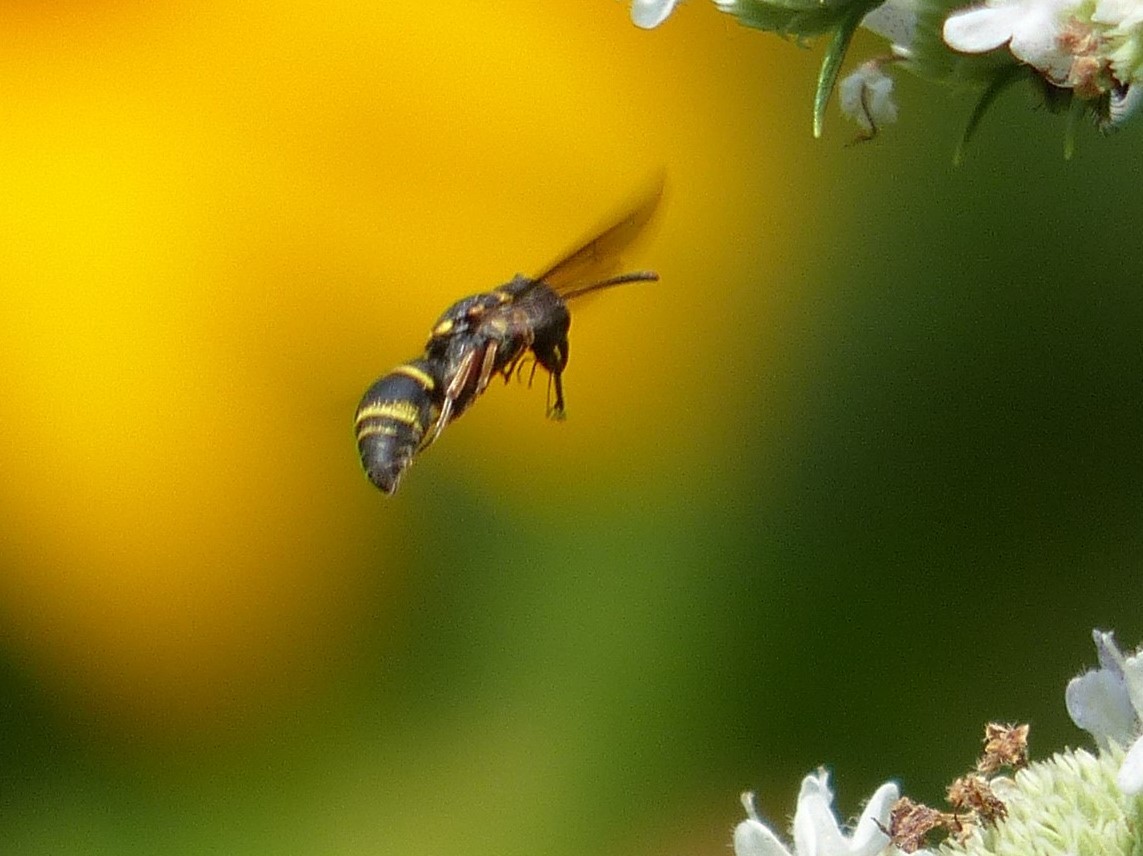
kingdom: Animalia
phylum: Arthropoda
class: Insecta
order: Hymenoptera
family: Eumenidae
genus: Cyrtolabulus
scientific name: Cyrtolabulus mutinensis
